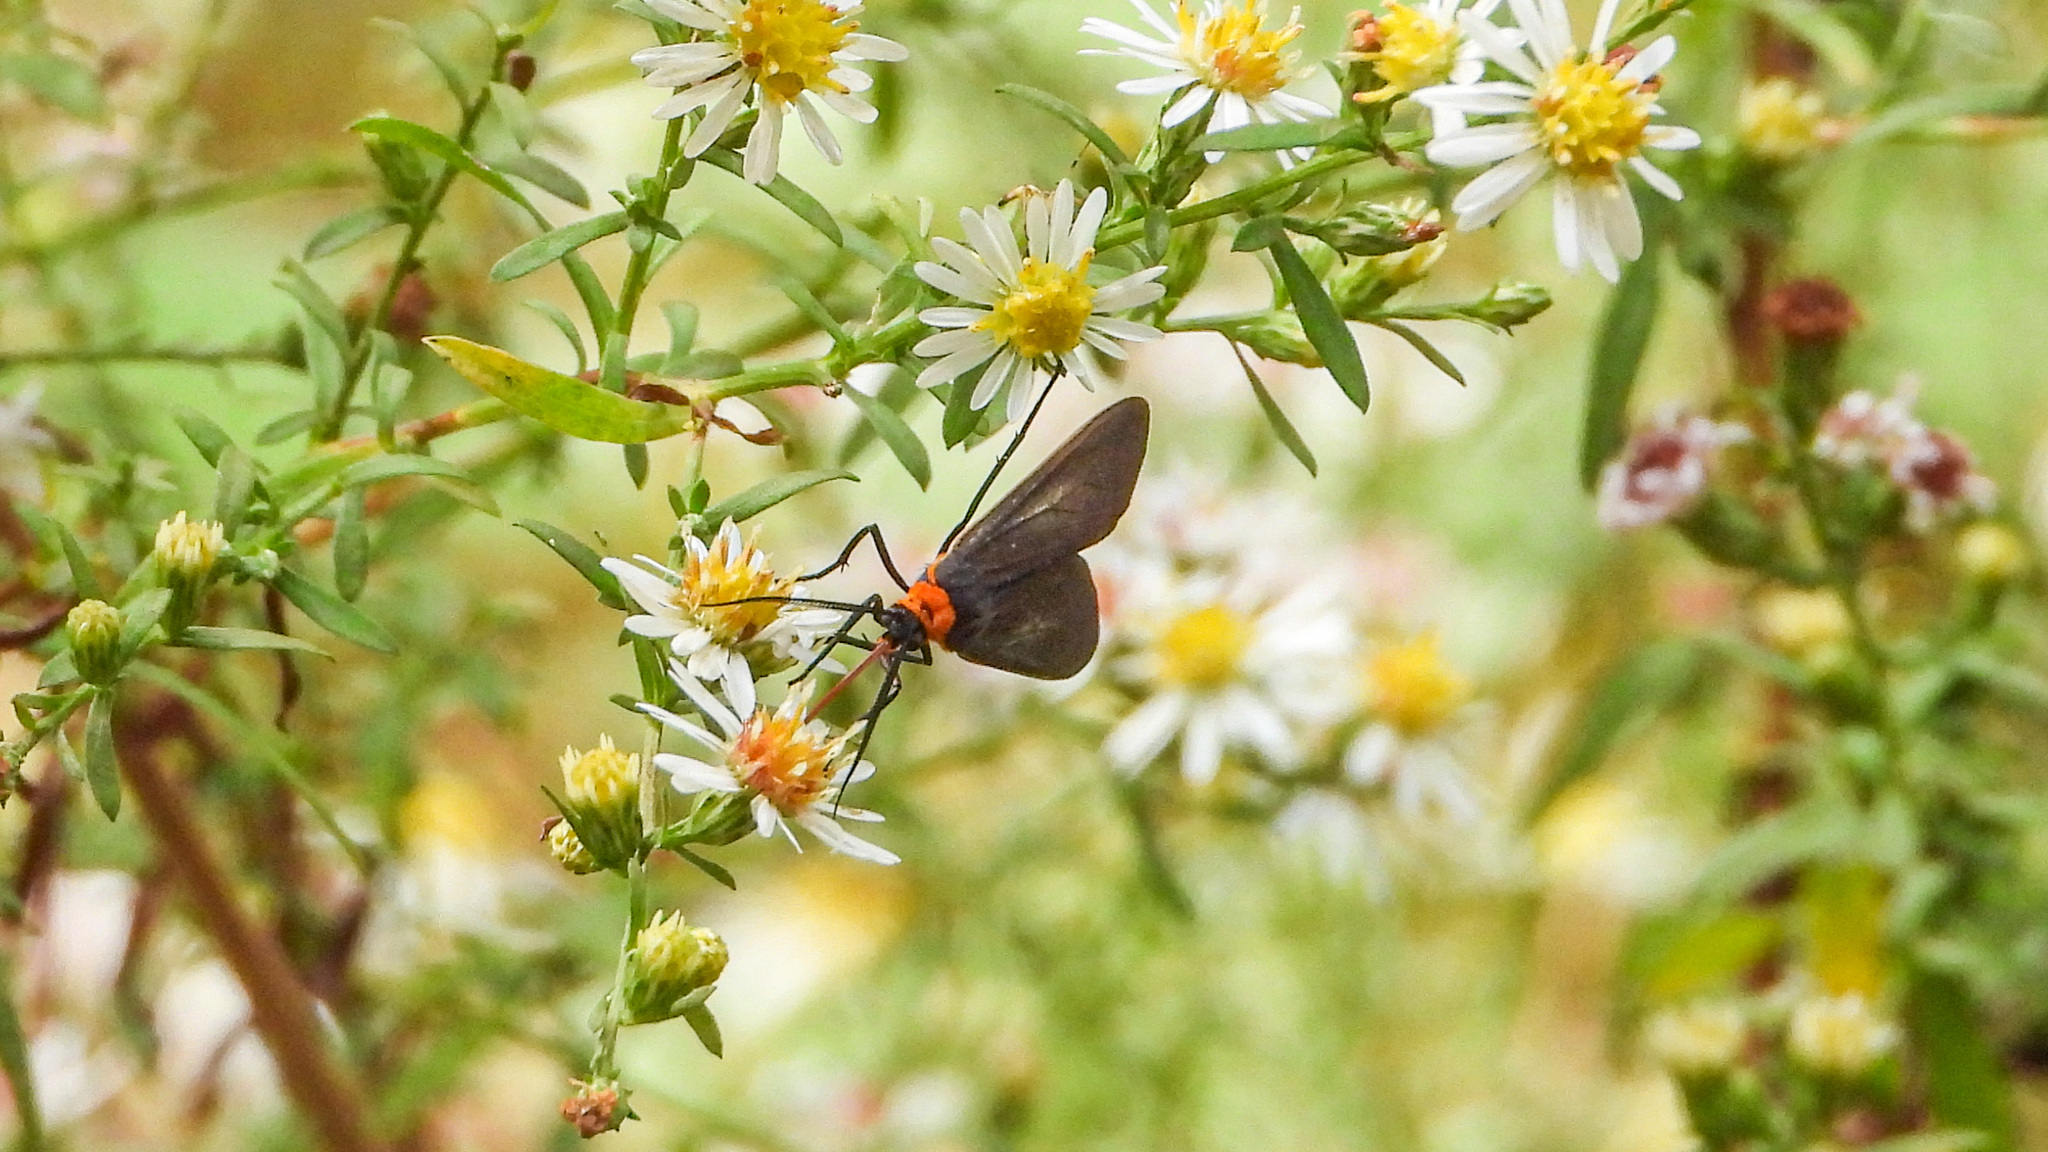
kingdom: Animalia
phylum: Arthropoda
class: Insecta
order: Lepidoptera
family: Erebidae
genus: Cisseps
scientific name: Cisseps fulvicollis
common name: Yellow-collared scape moth
